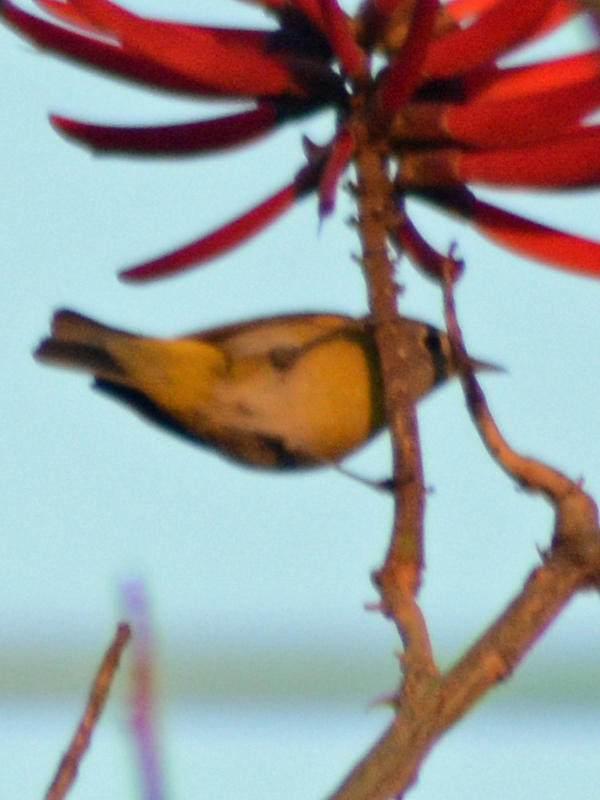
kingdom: Animalia
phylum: Chordata
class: Aves
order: Passeriformes
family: Parulidae
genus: Leiothlypis
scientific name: Leiothlypis ruficapilla
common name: Nashville warbler
